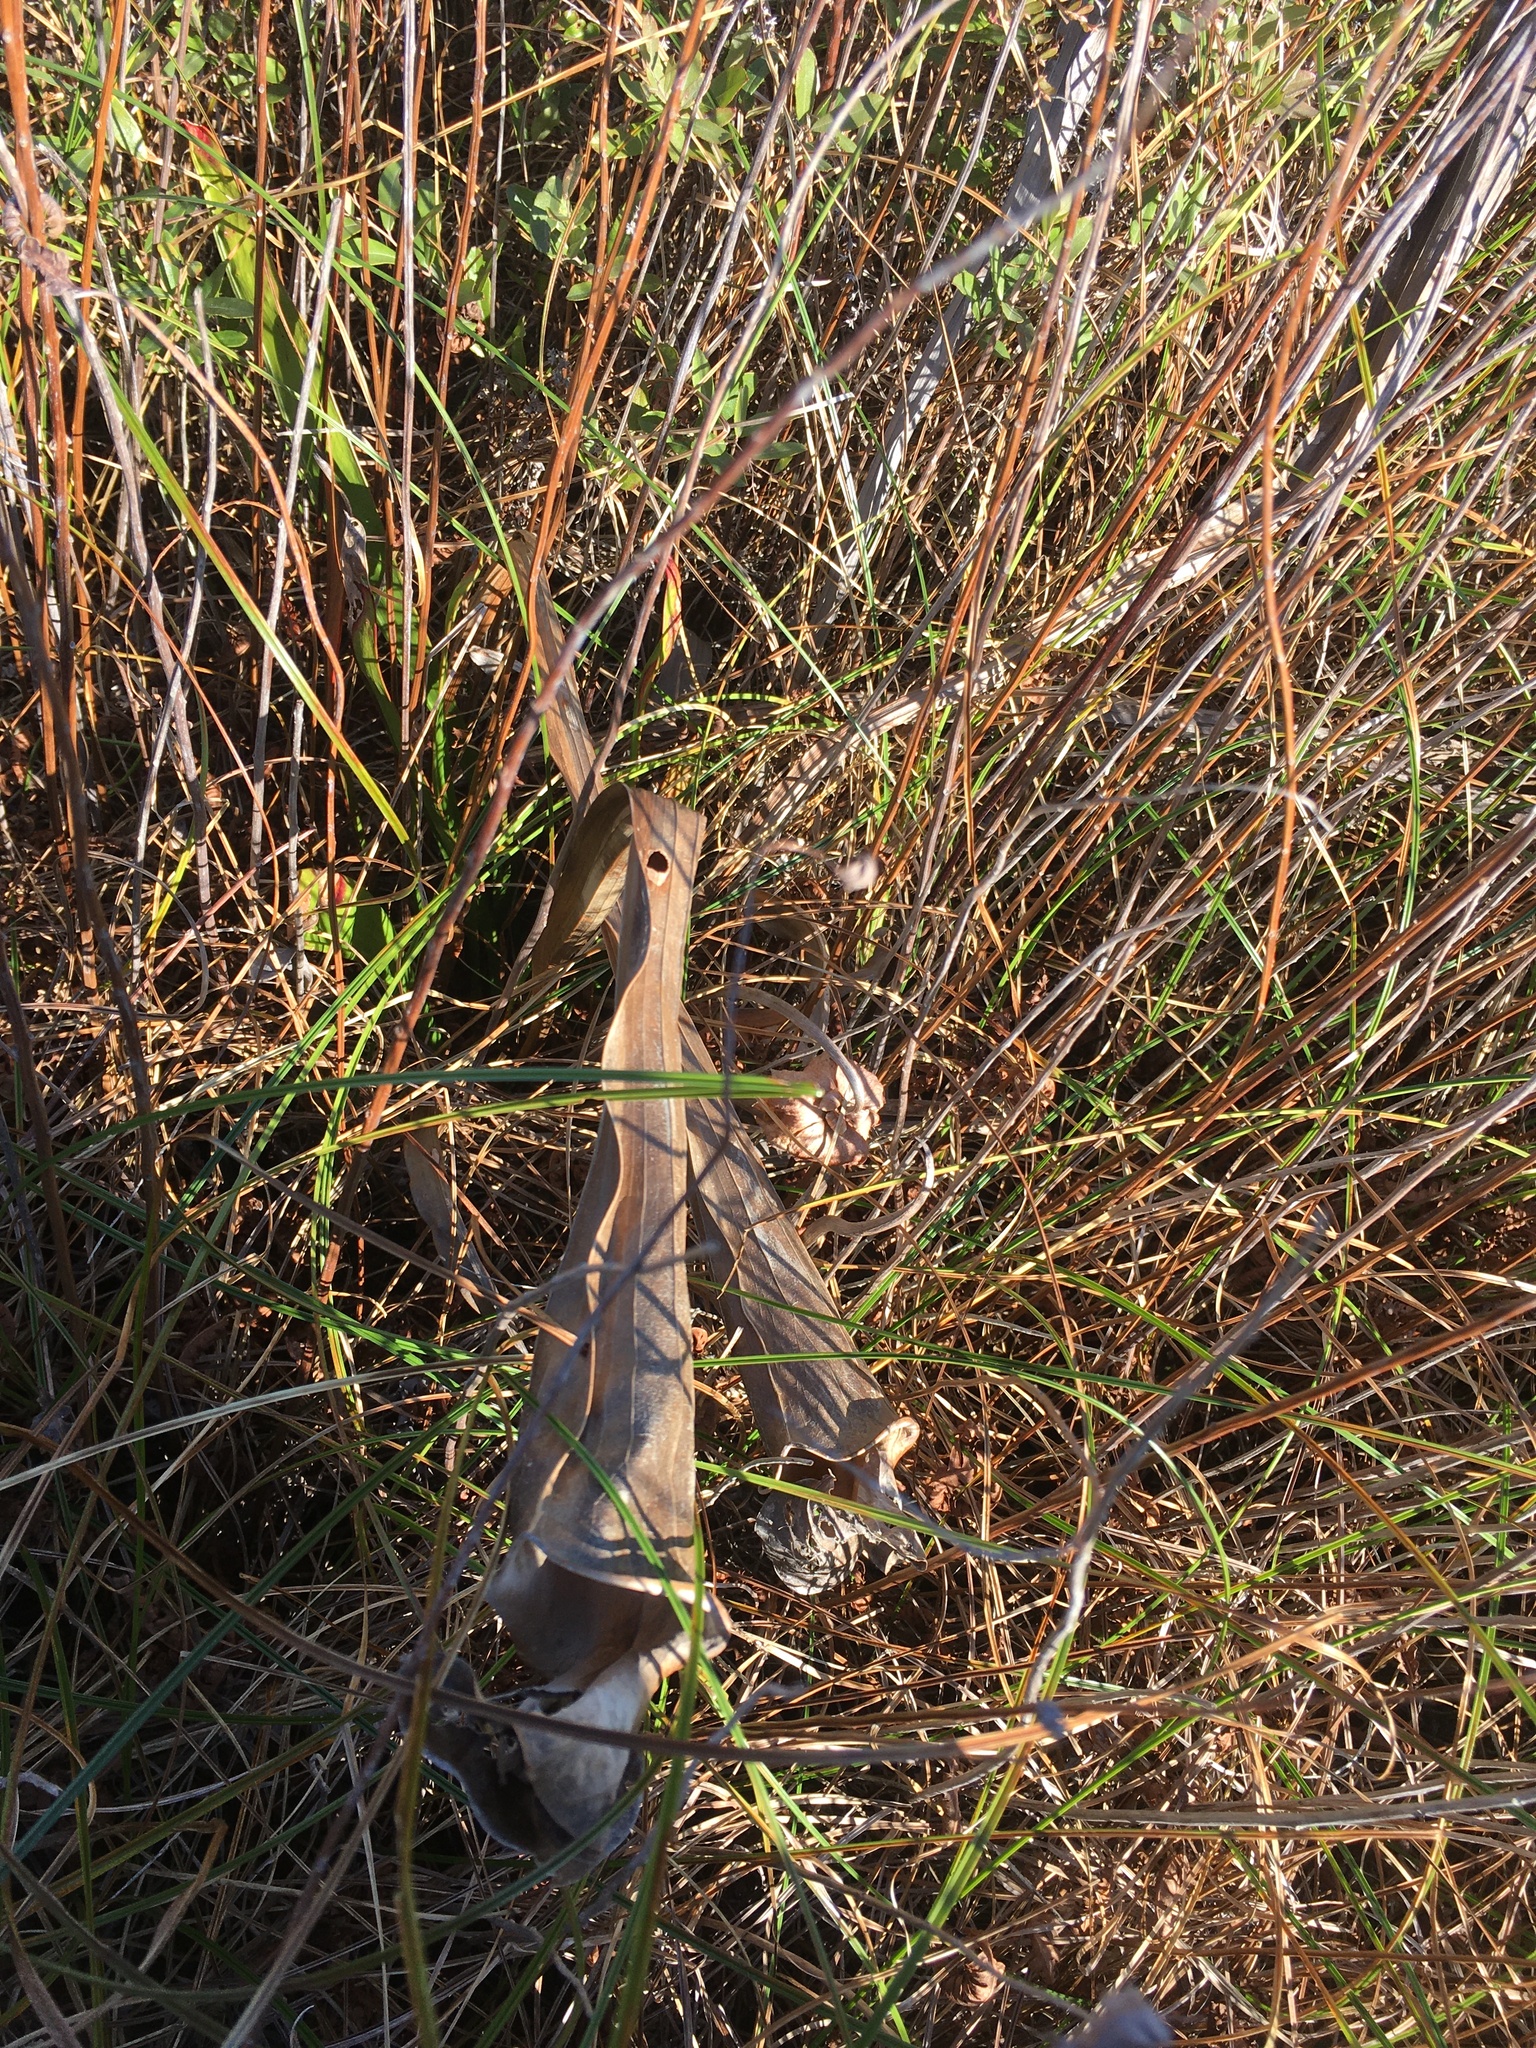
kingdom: Plantae
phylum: Tracheophyta
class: Magnoliopsida
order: Ericales
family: Sarraceniaceae
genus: Sarracenia
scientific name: Sarracenia flava
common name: Trumpets
